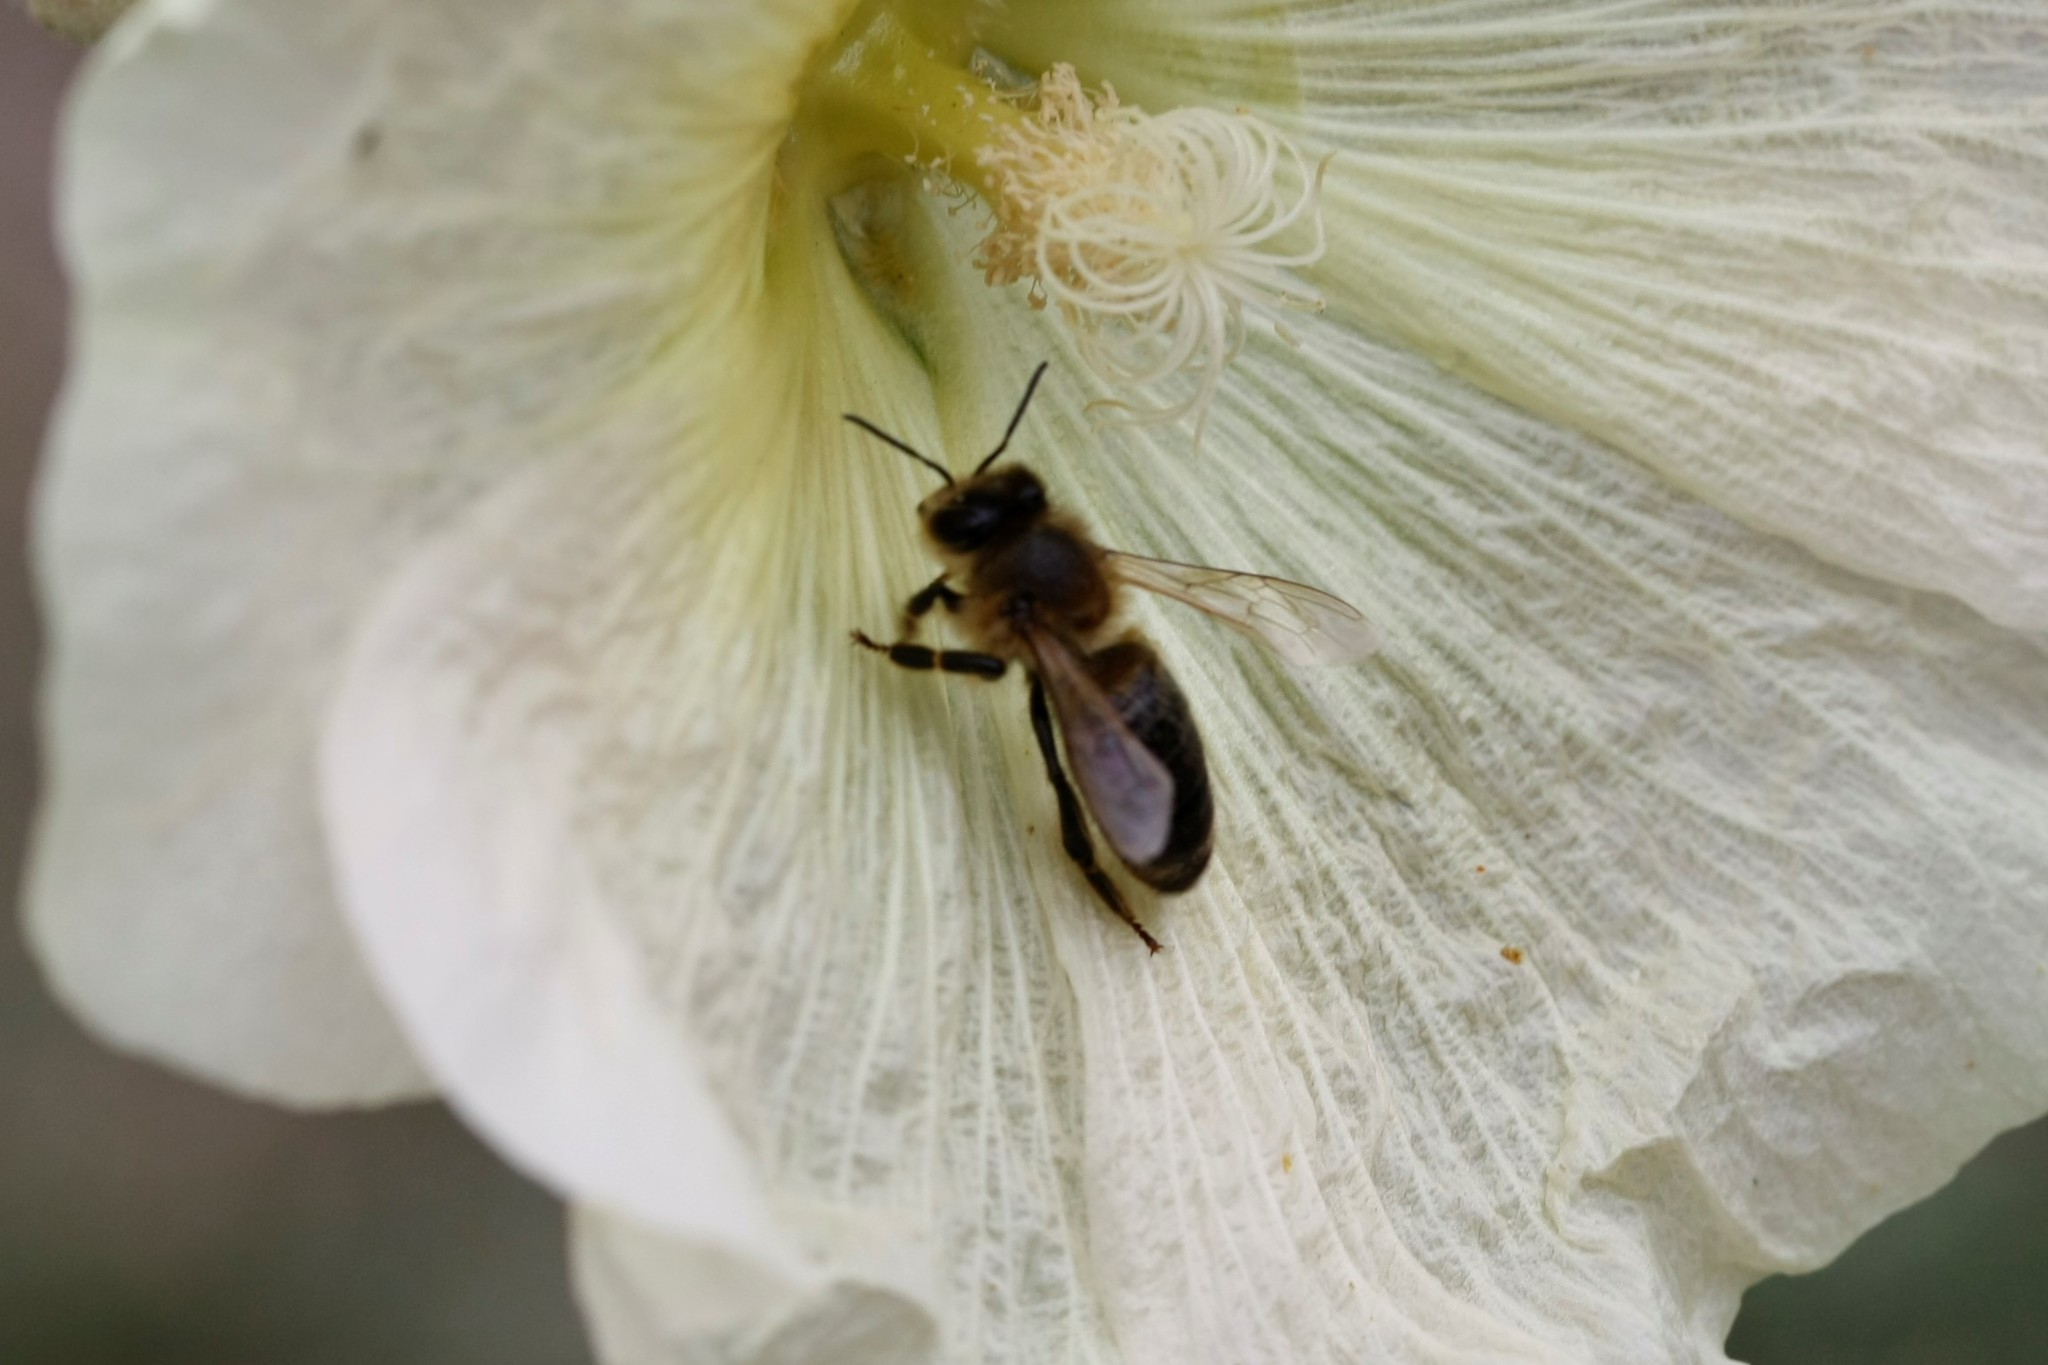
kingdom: Animalia
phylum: Arthropoda
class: Insecta
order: Hymenoptera
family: Apidae
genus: Apis
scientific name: Apis mellifera
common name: Honey bee
